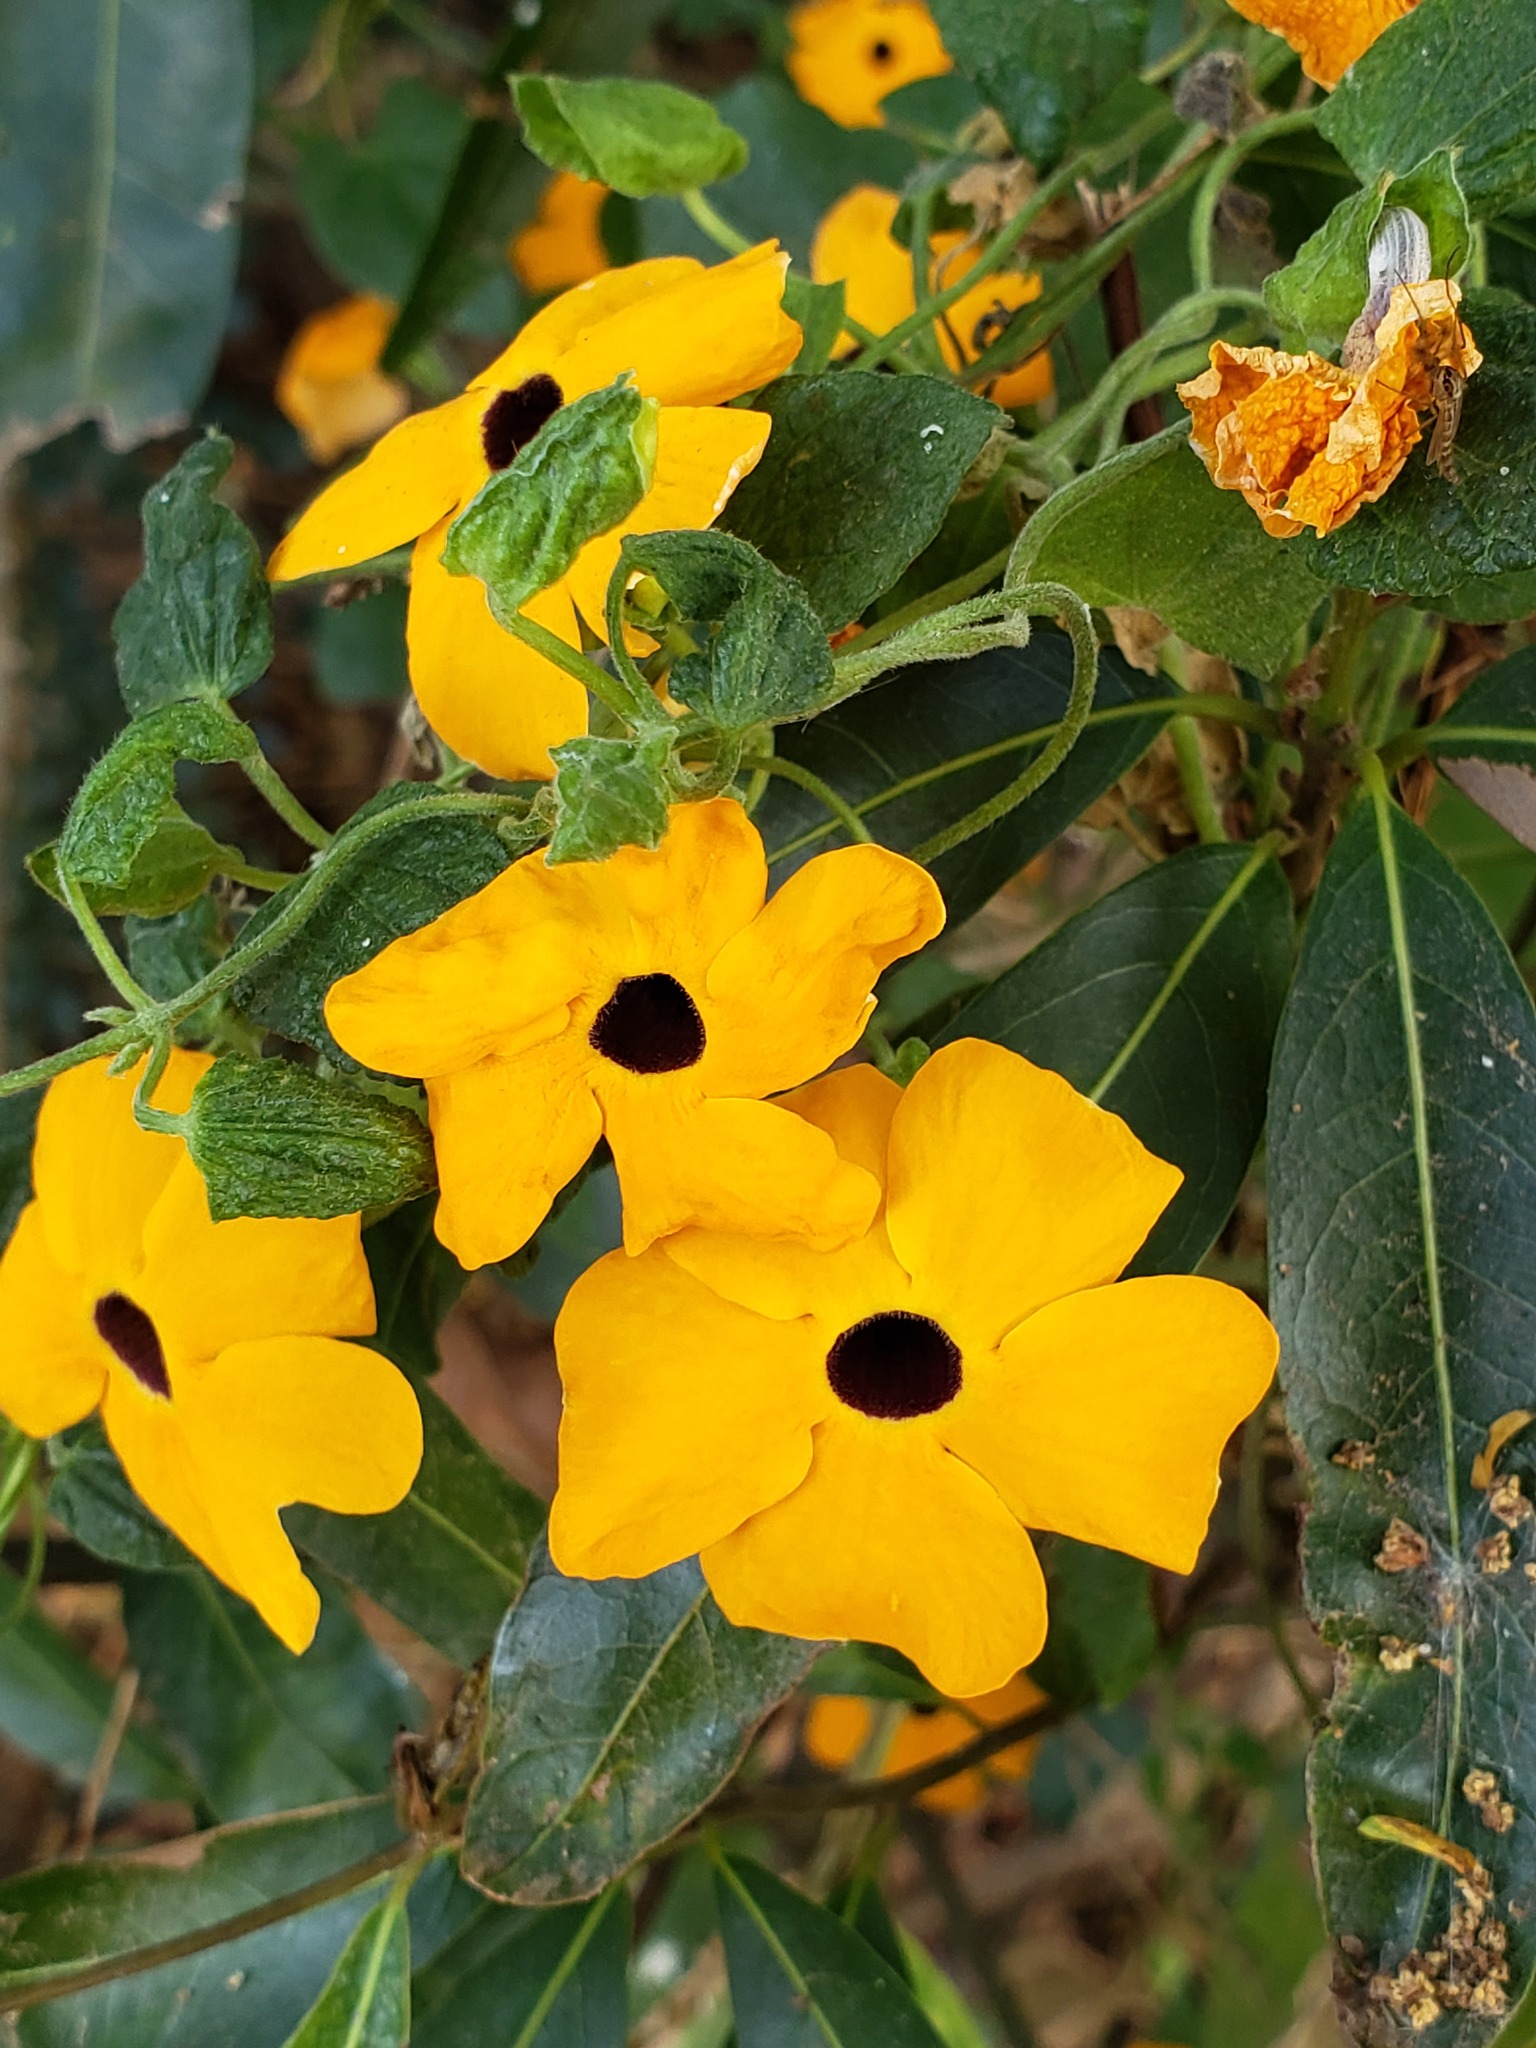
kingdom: Plantae
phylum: Tracheophyta
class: Magnoliopsida
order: Lamiales
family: Acanthaceae
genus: Thunbergia
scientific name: Thunbergia alata
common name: Blackeyed susan vine
